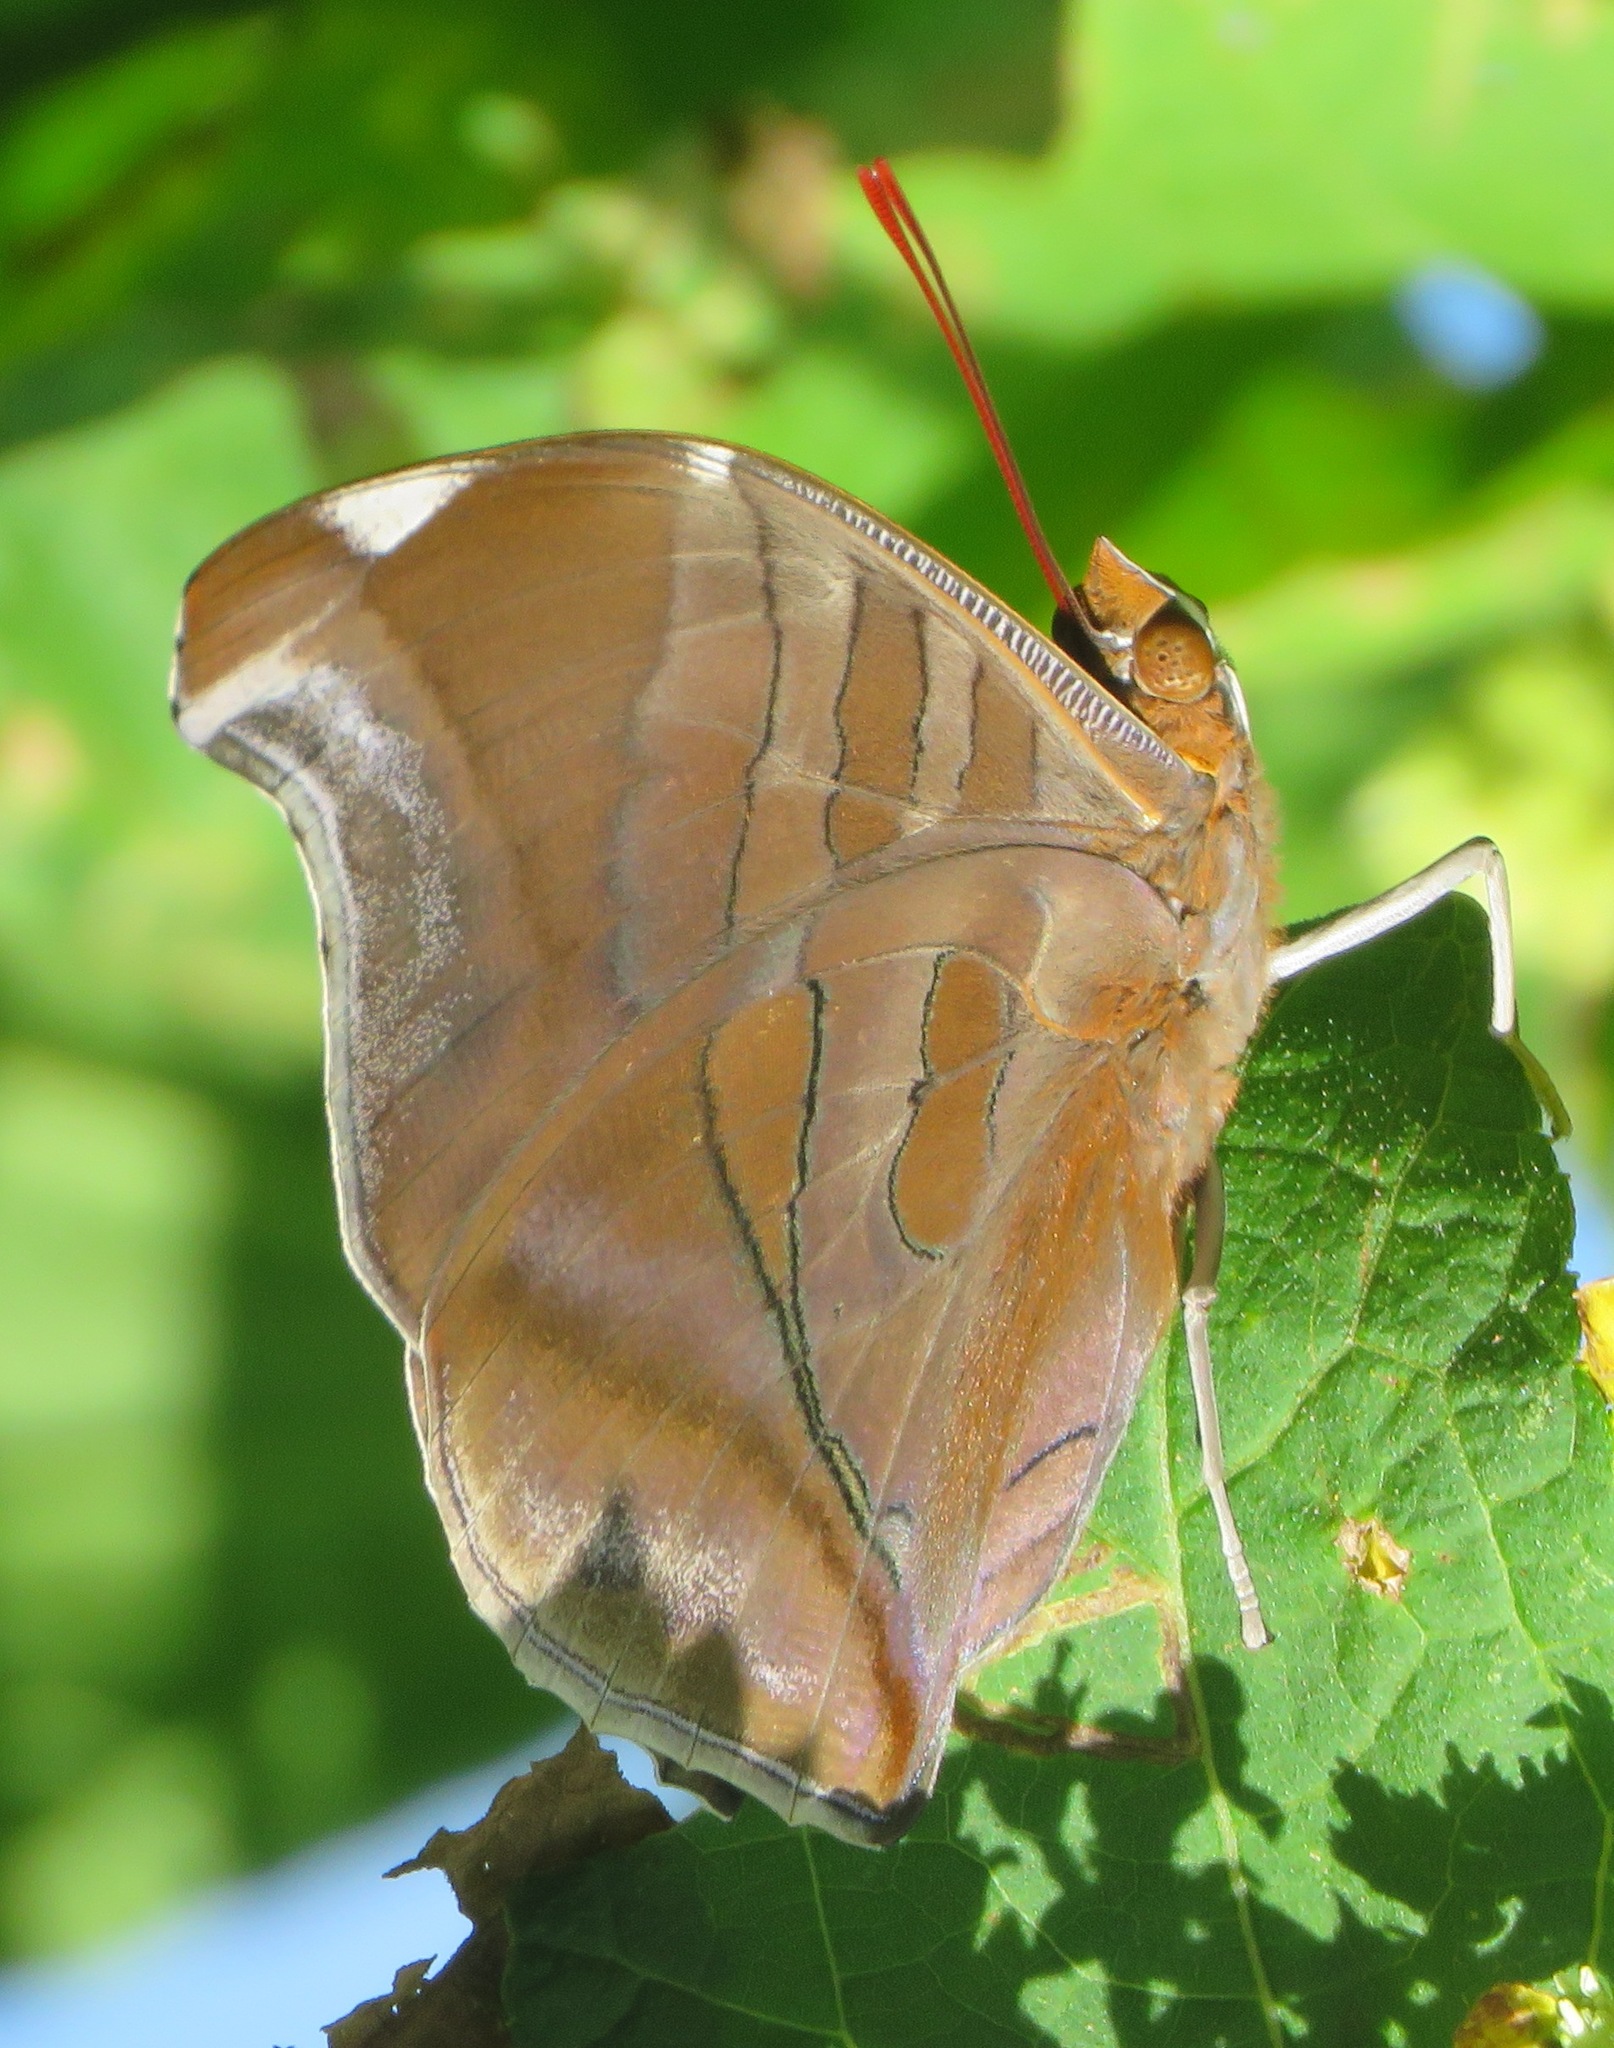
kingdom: Animalia
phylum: Arthropoda
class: Insecta
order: Lepidoptera
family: Nymphalidae
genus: Historis
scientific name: Historis odius
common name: Orion cecropian
